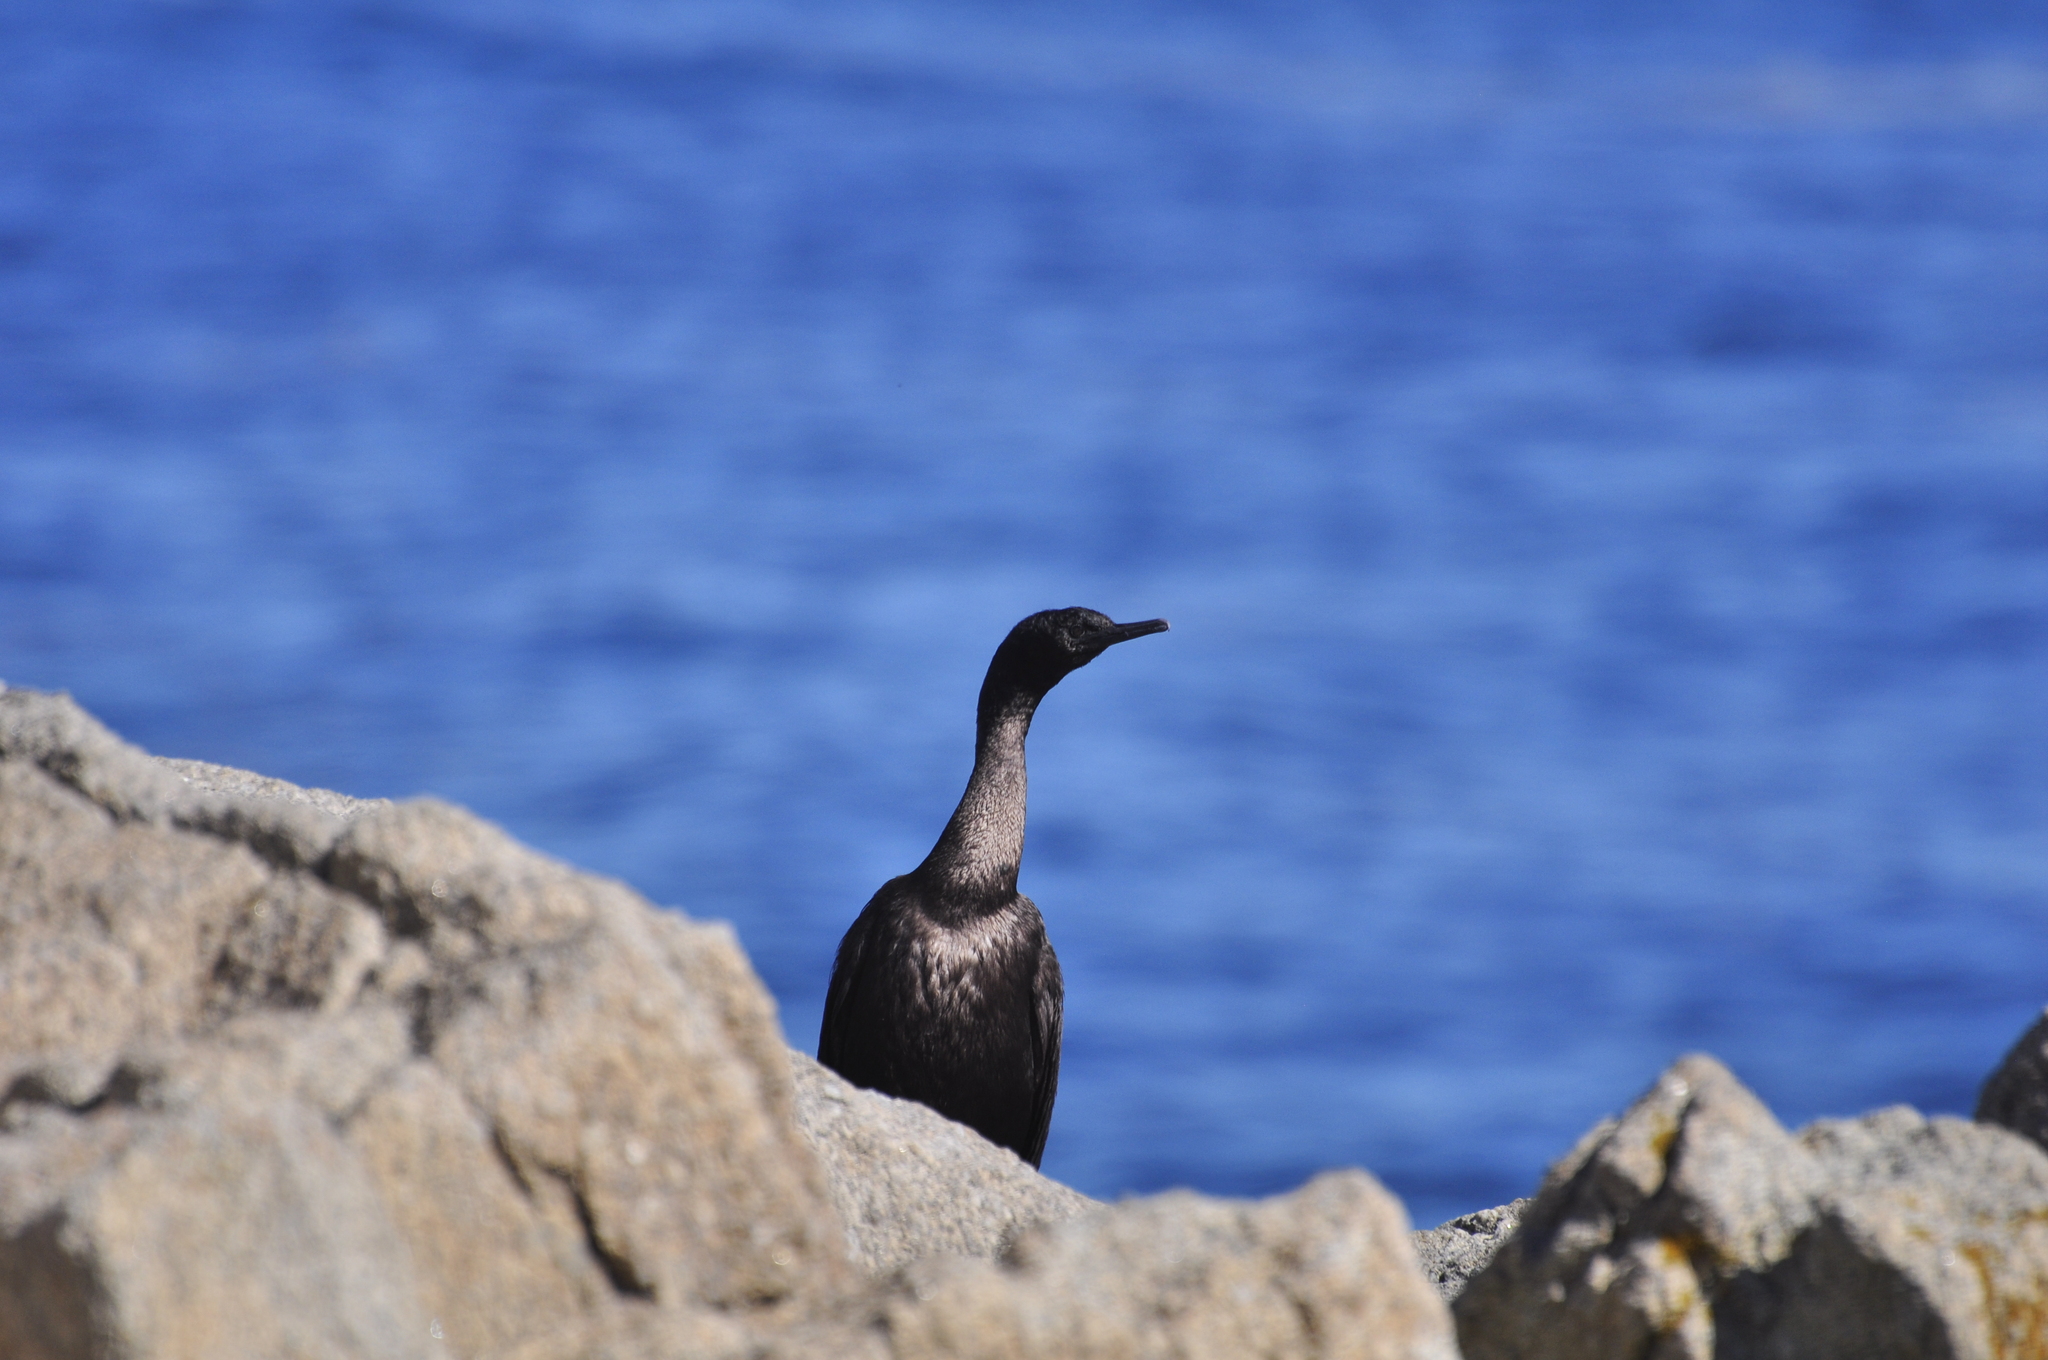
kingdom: Animalia
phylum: Chordata
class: Aves
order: Suliformes
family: Phalacrocoracidae
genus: Phalacrocorax
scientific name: Phalacrocorax pelagicus
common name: Pelagic cormorant
